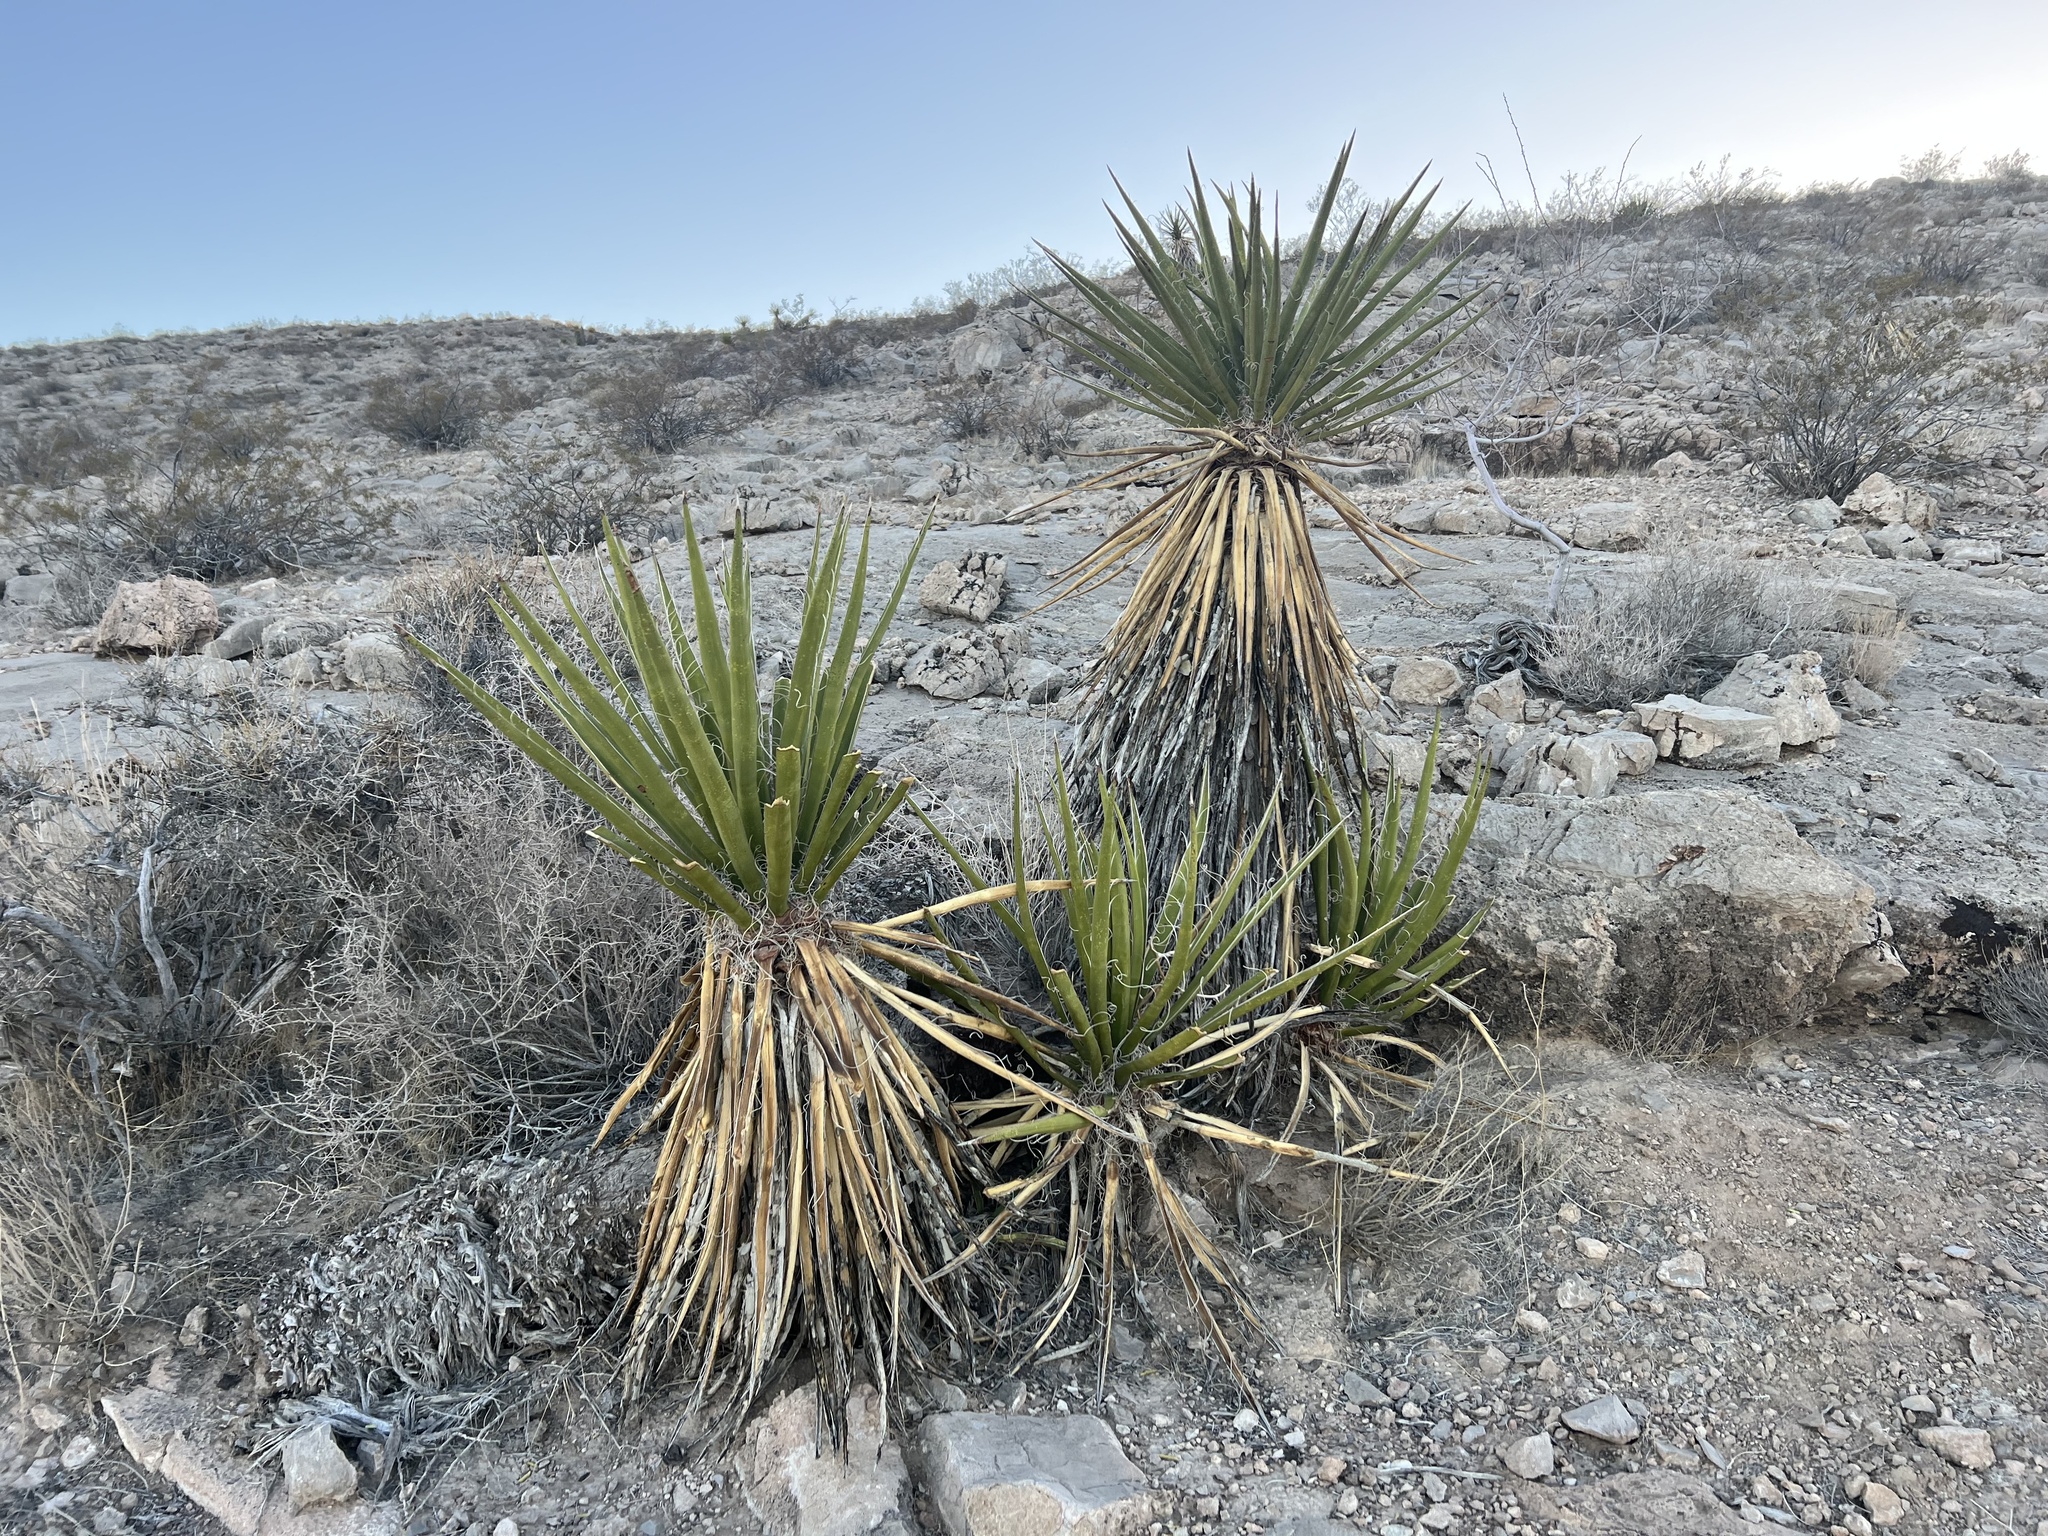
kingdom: Plantae
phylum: Tracheophyta
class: Liliopsida
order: Asparagales
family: Asparagaceae
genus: Yucca
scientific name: Yucca schidigera
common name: Mojave yucca
